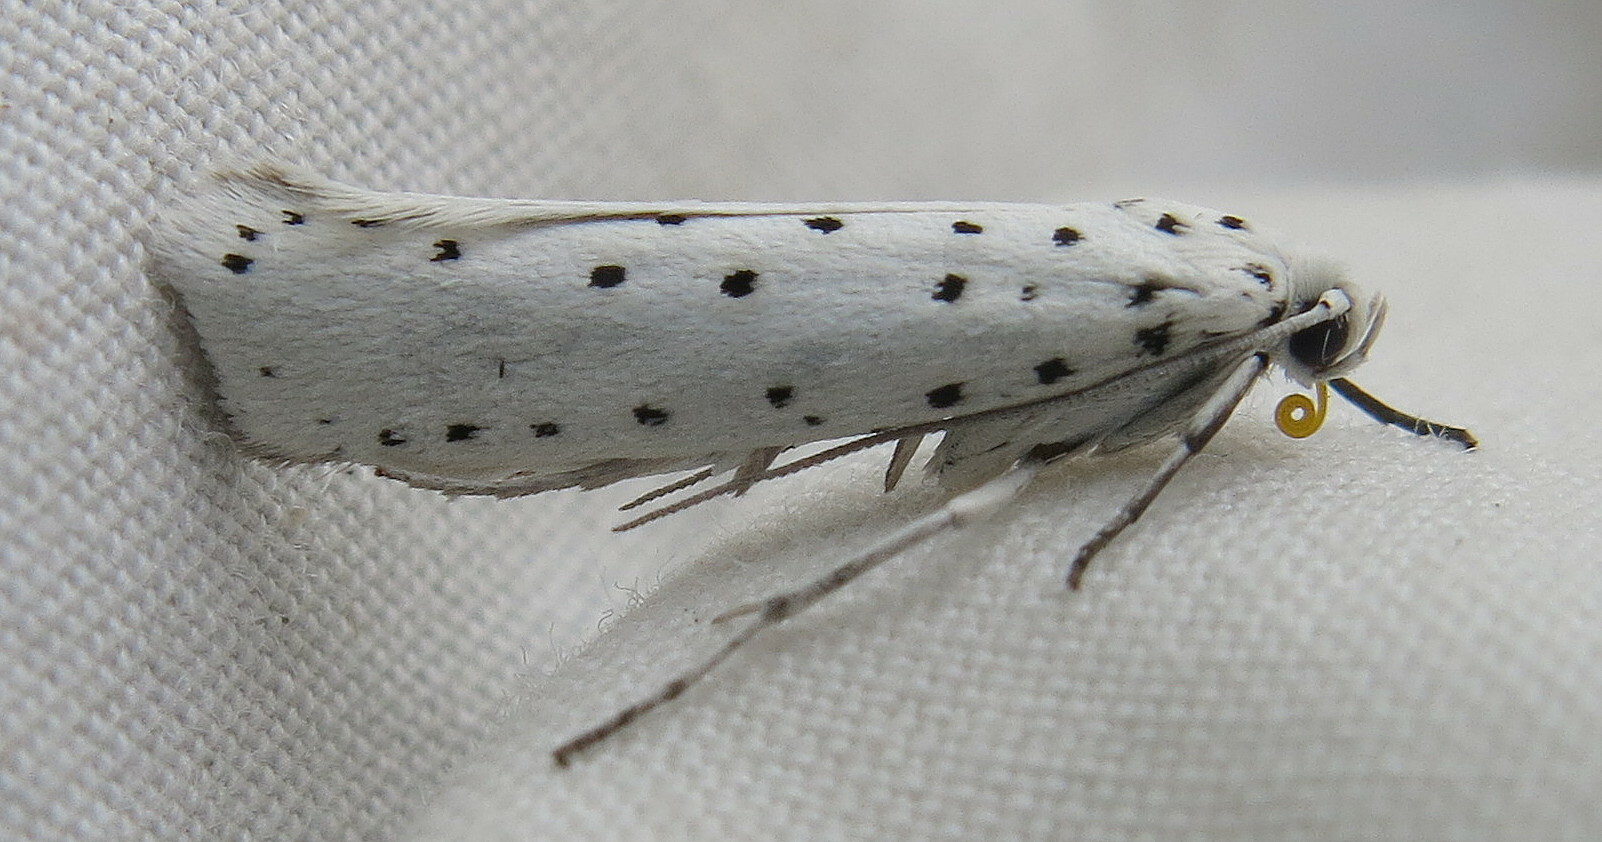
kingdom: Animalia
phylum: Arthropoda
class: Insecta
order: Lepidoptera
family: Yponomeutidae
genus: Yponomeuta
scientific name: Yponomeuta
